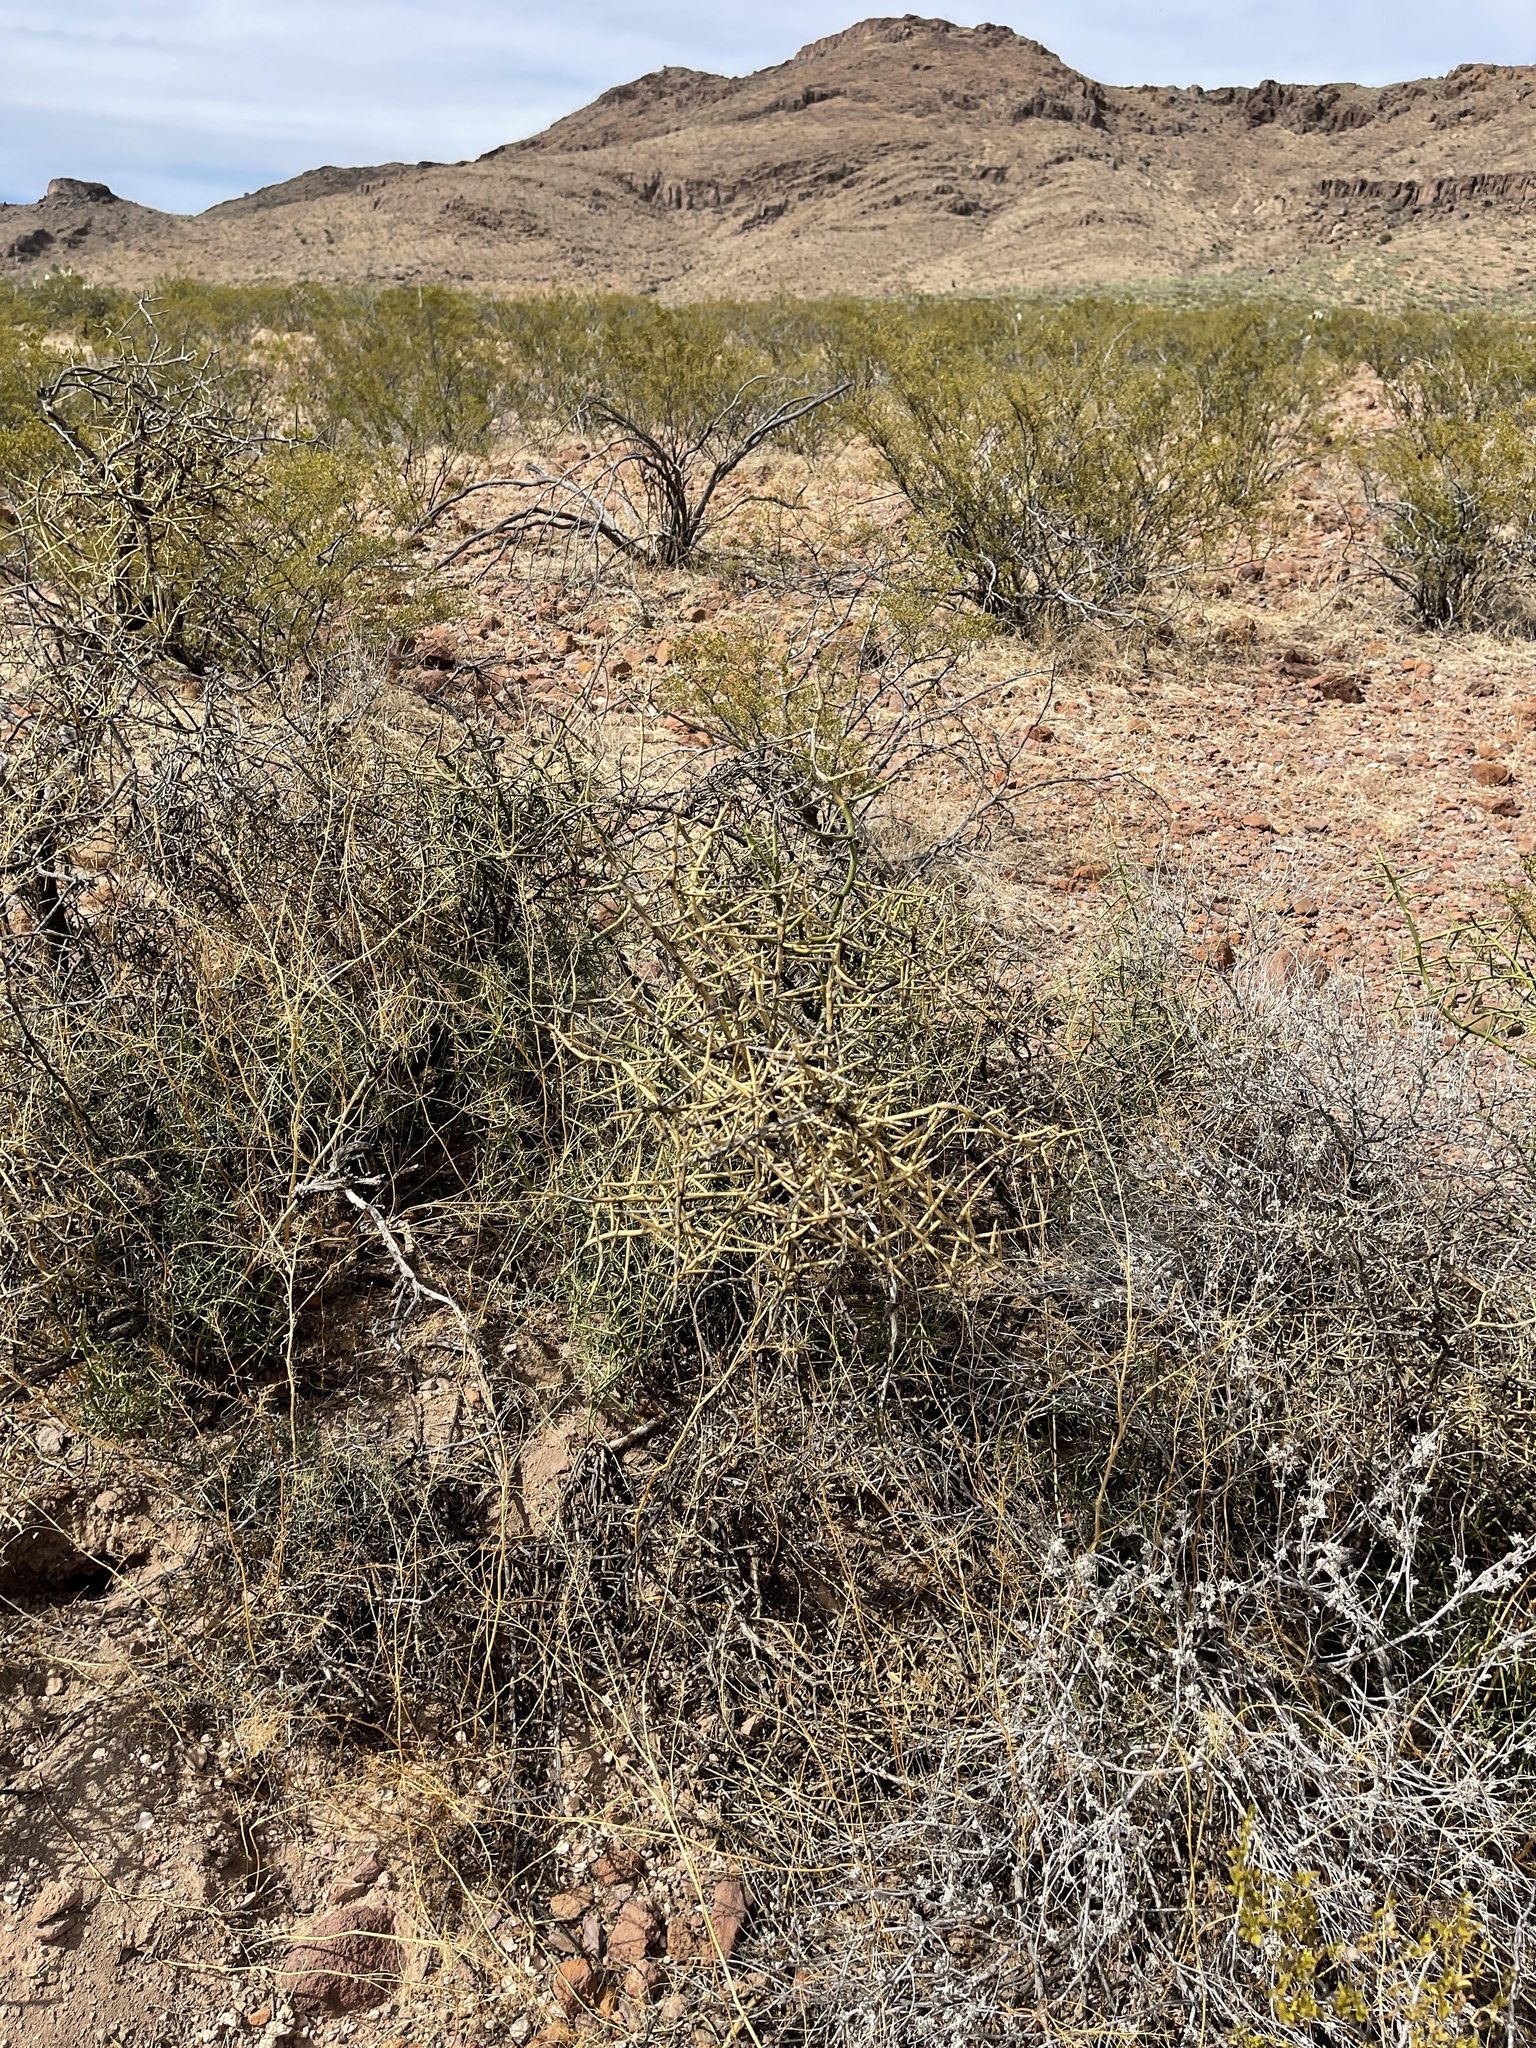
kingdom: Plantae
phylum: Tracheophyta
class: Magnoliopsida
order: Brassicales
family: Koeberliniaceae
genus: Koeberlinia
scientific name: Koeberlinia spinosa
